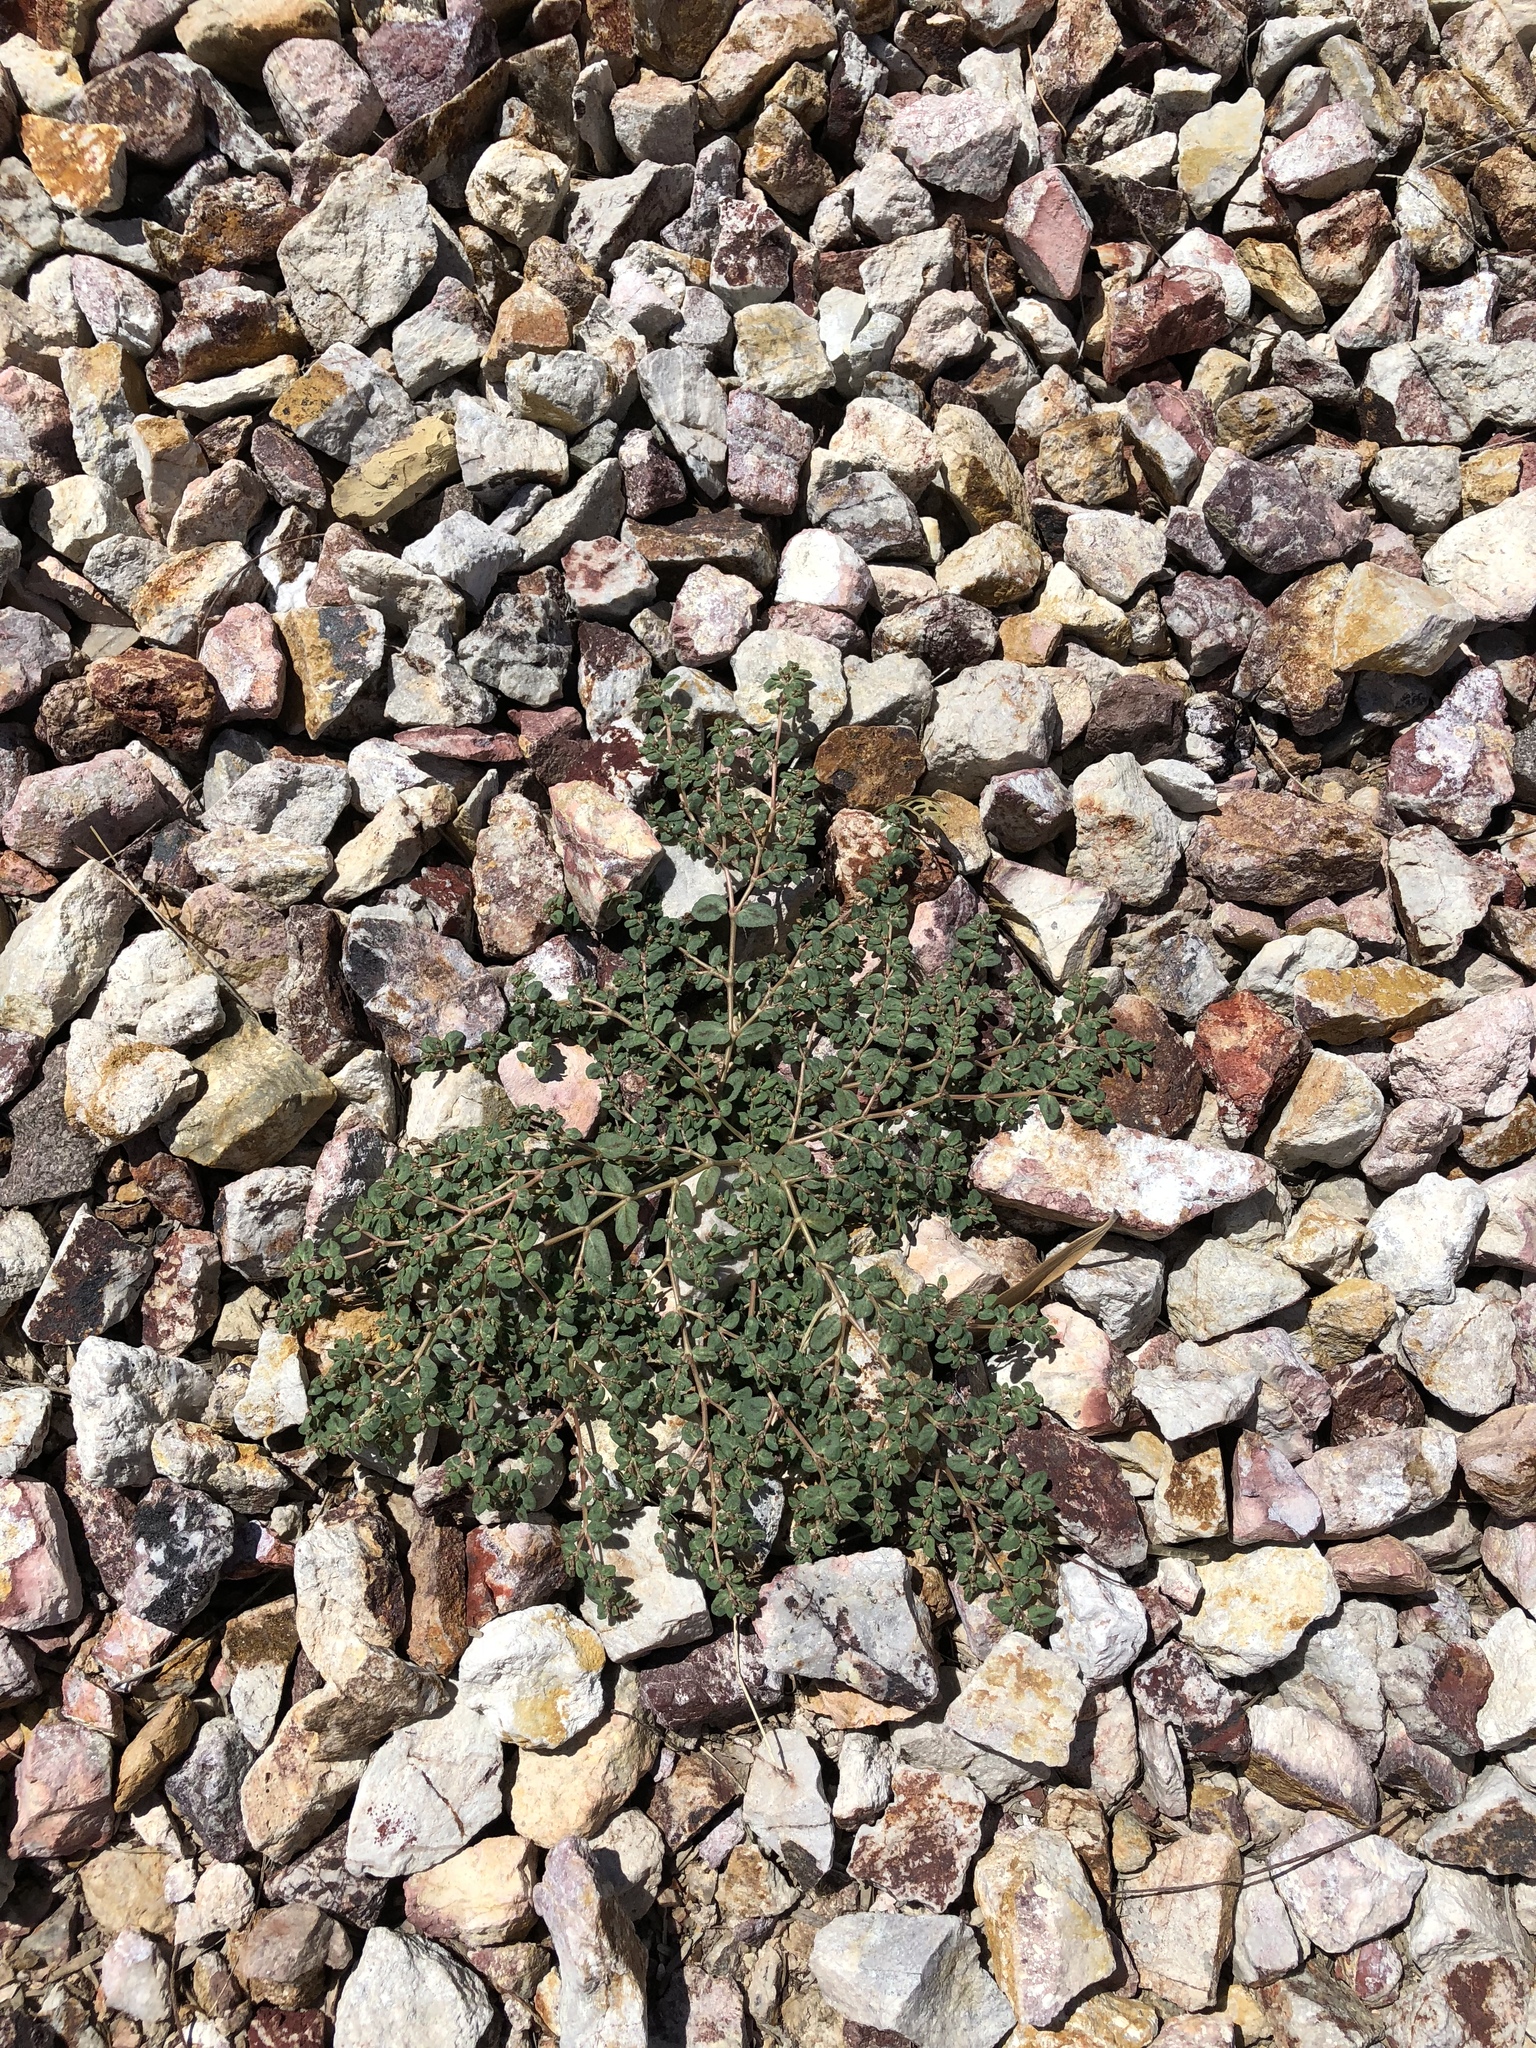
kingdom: Plantae
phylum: Tracheophyta
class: Magnoliopsida
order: Malpighiales
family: Euphorbiaceae
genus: Euphorbia
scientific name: Euphorbia abramsiana
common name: Abram's spurge
